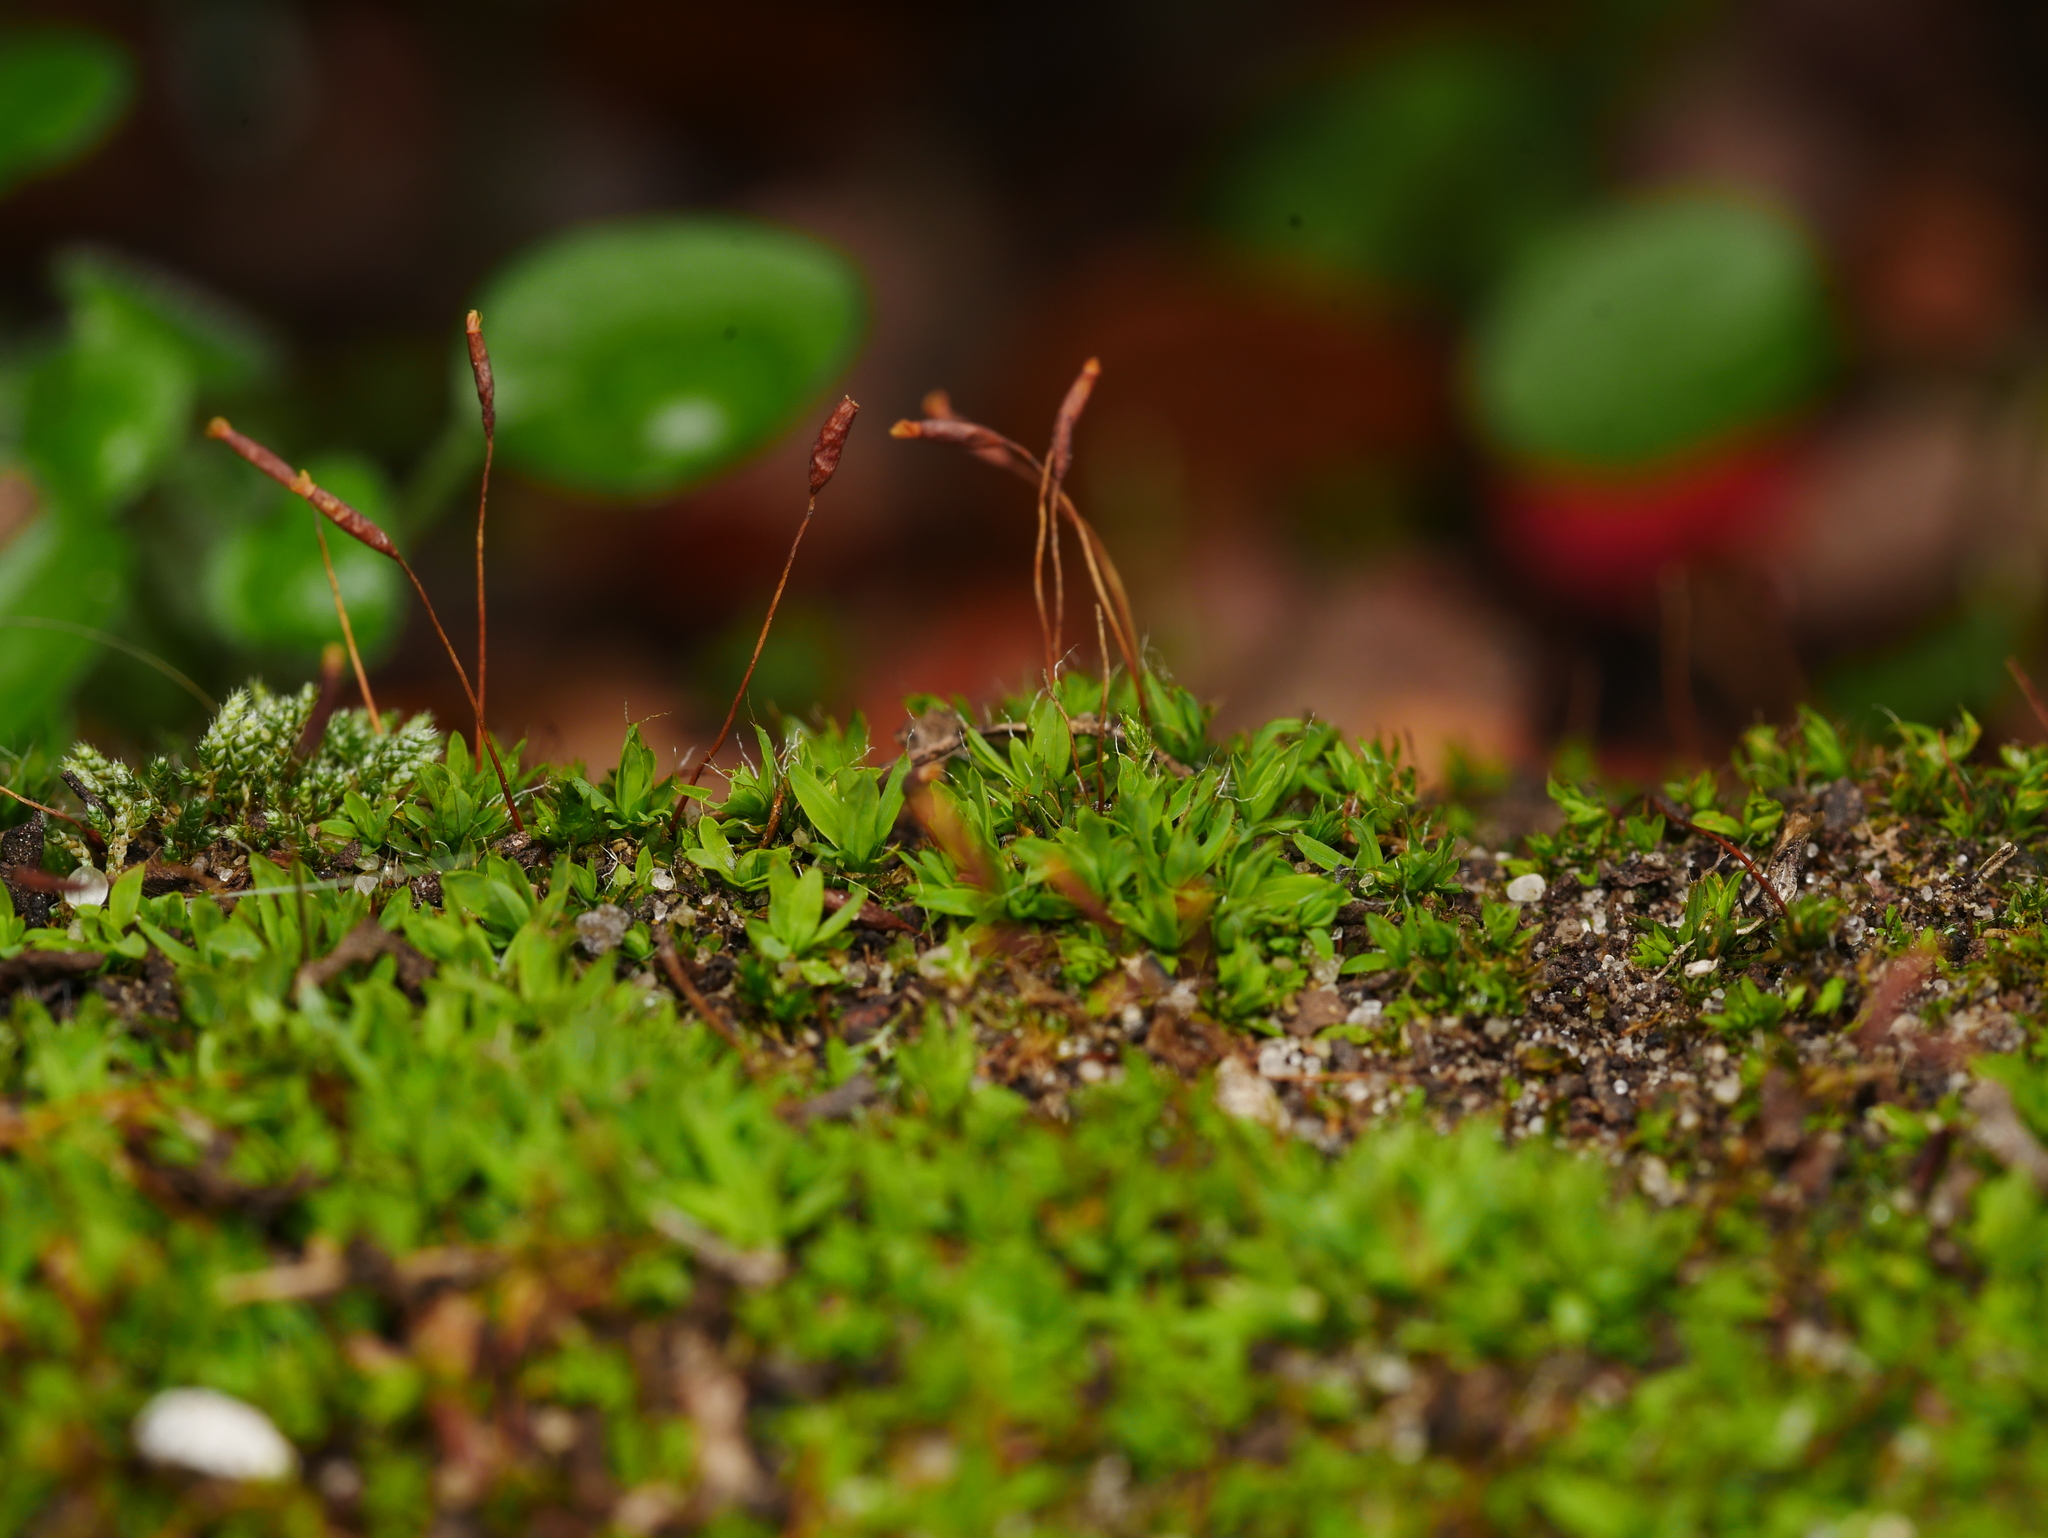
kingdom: Plantae
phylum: Bryophyta
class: Bryopsida
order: Pottiales
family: Pottiaceae
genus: Tortula
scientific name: Tortula muralis
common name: Wall screw-moss
